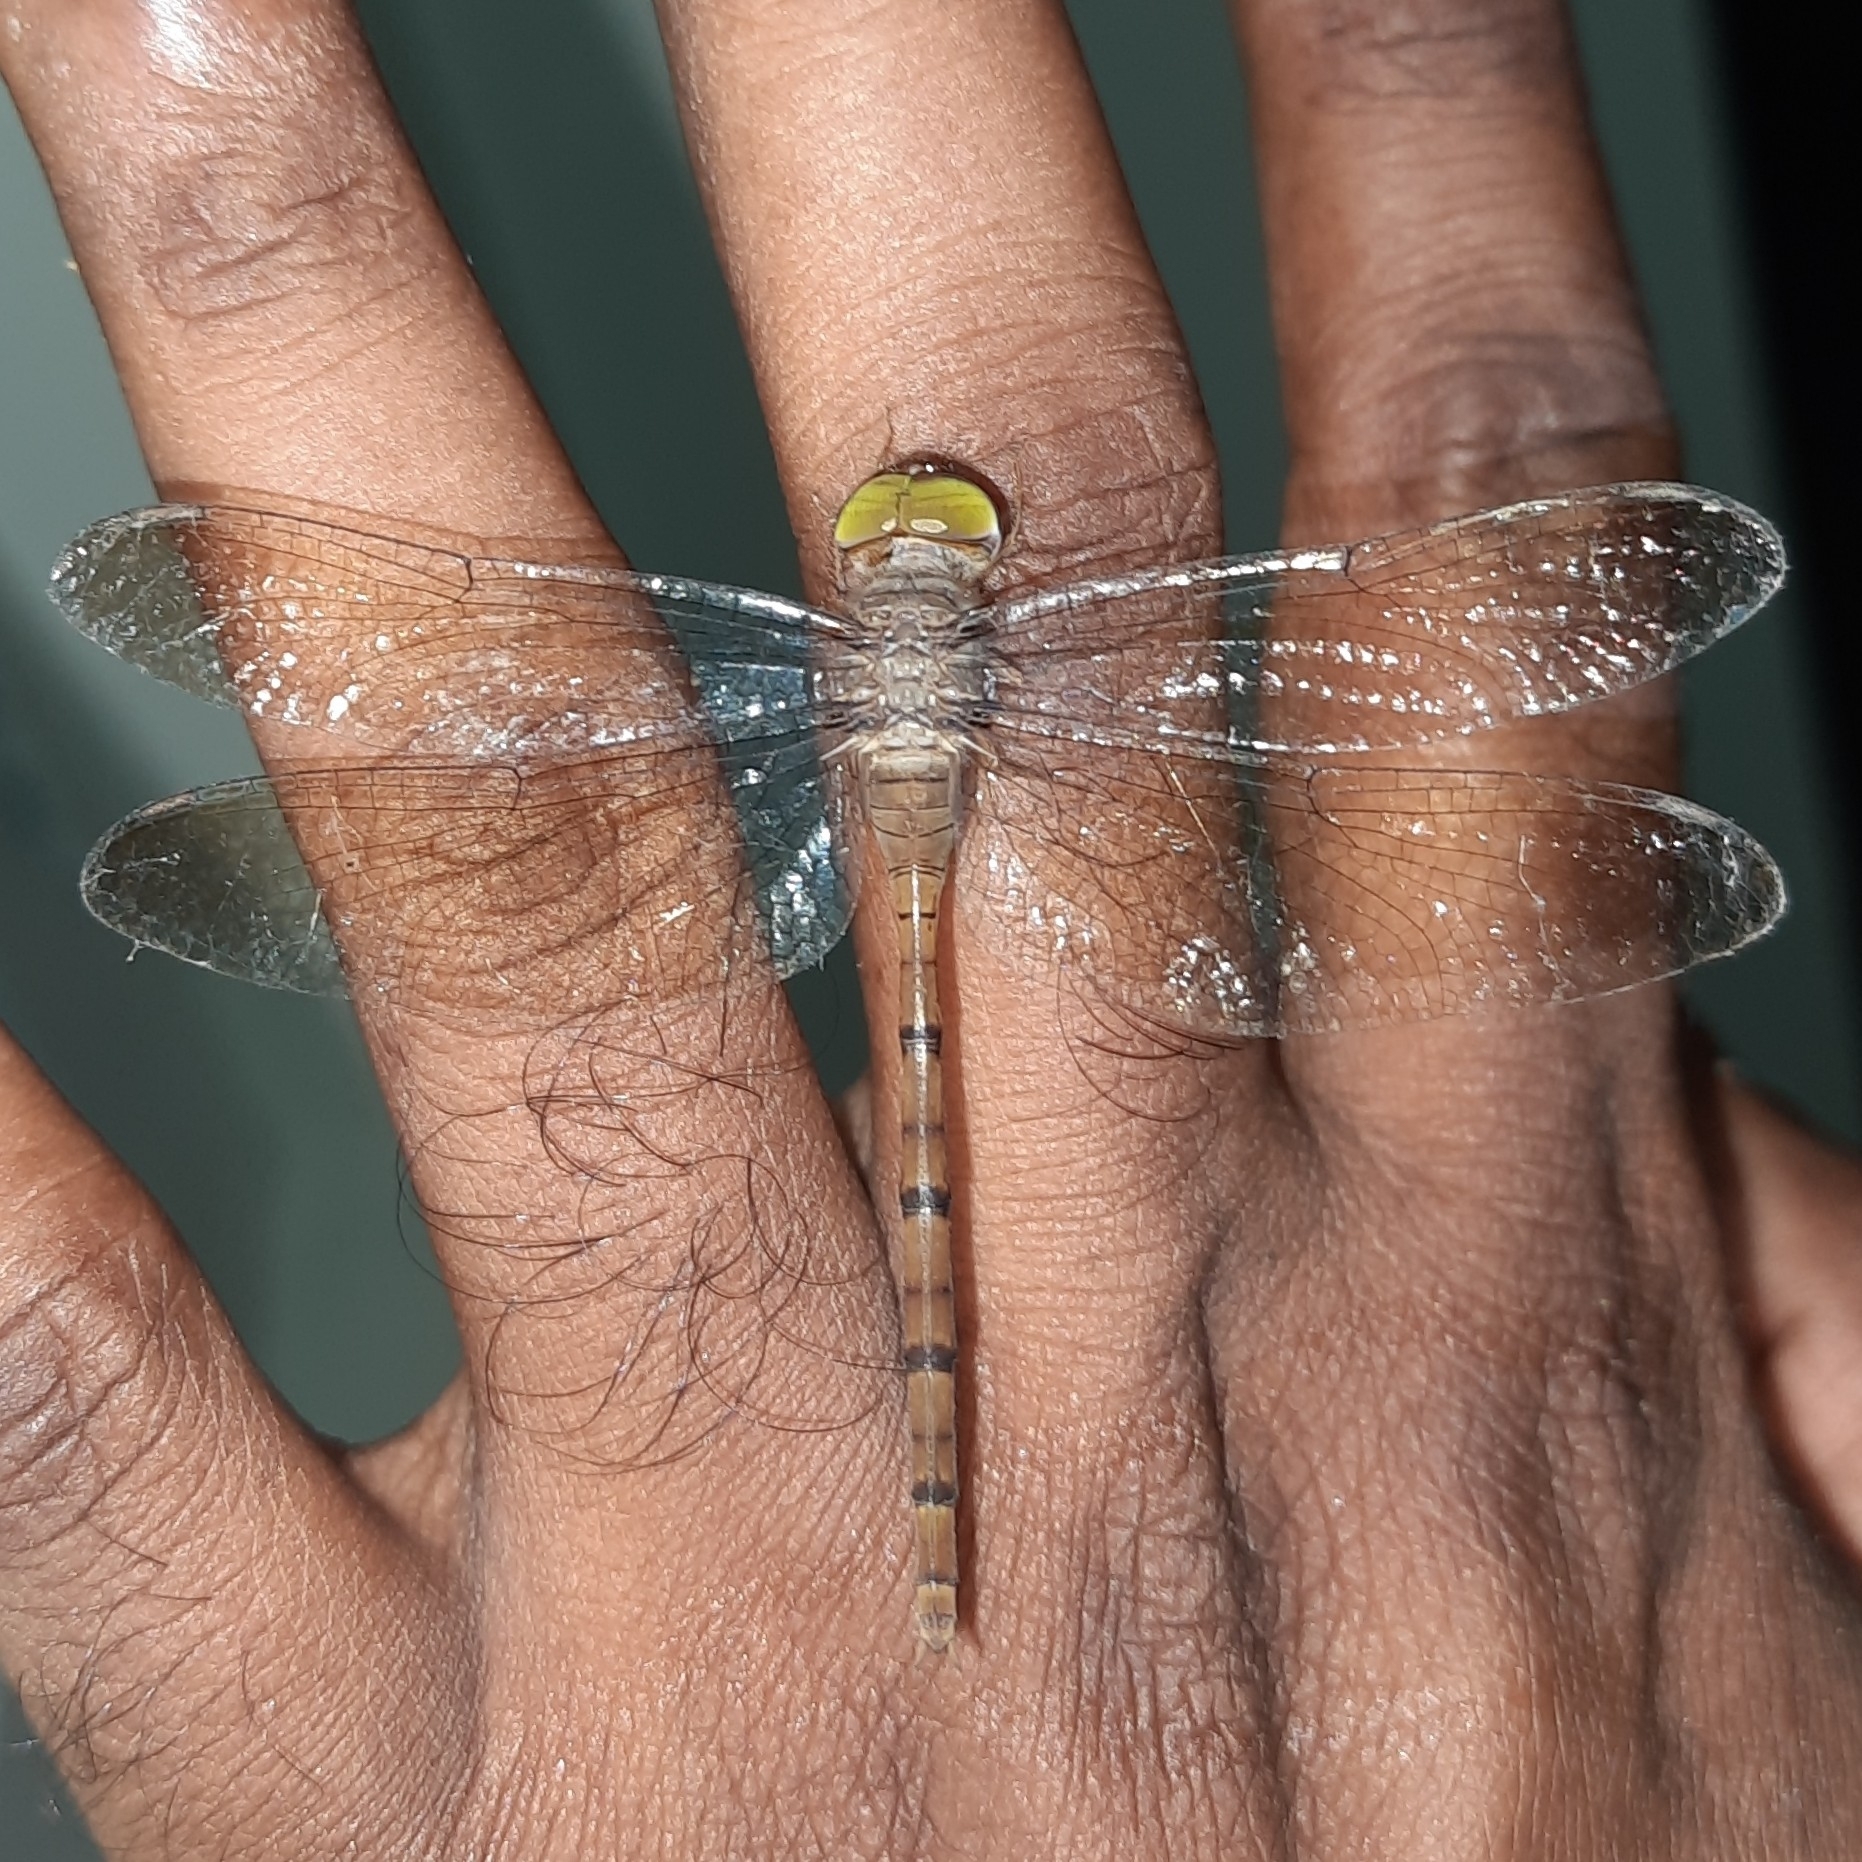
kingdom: Animalia
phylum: Arthropoda
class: Insecta
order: Odonata
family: Libellulidae
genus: Zyxomma
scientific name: Zyxomma petiolatum
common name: Dingy dusk-darter
